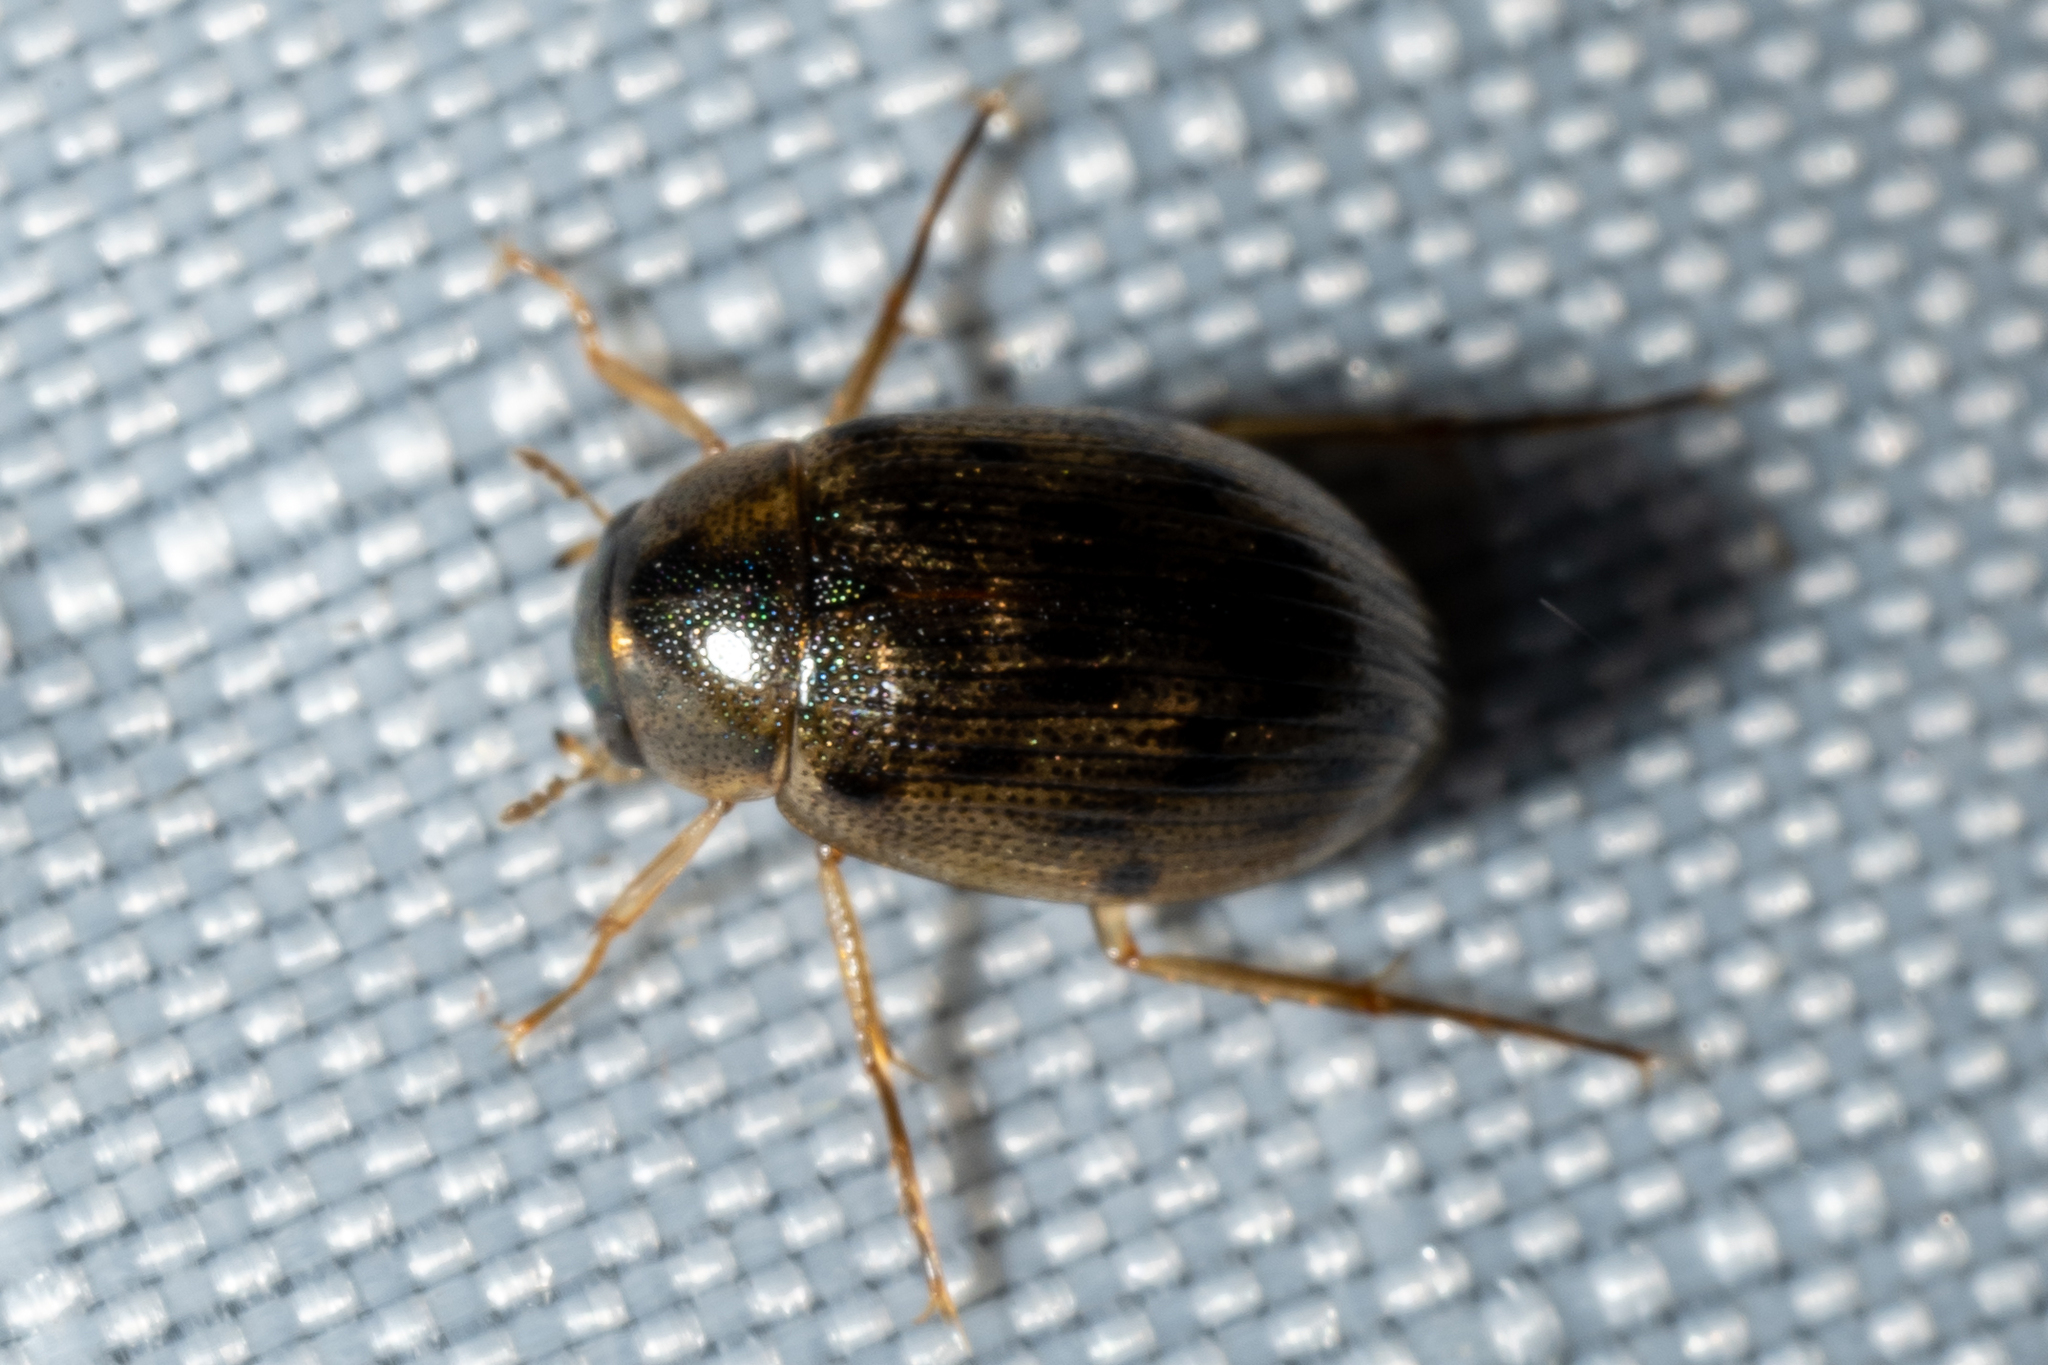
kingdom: Animalia
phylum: Arthropoda
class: Insecta
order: Coleoptera
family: Hydrophilidae
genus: Berosus
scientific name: Berosus
